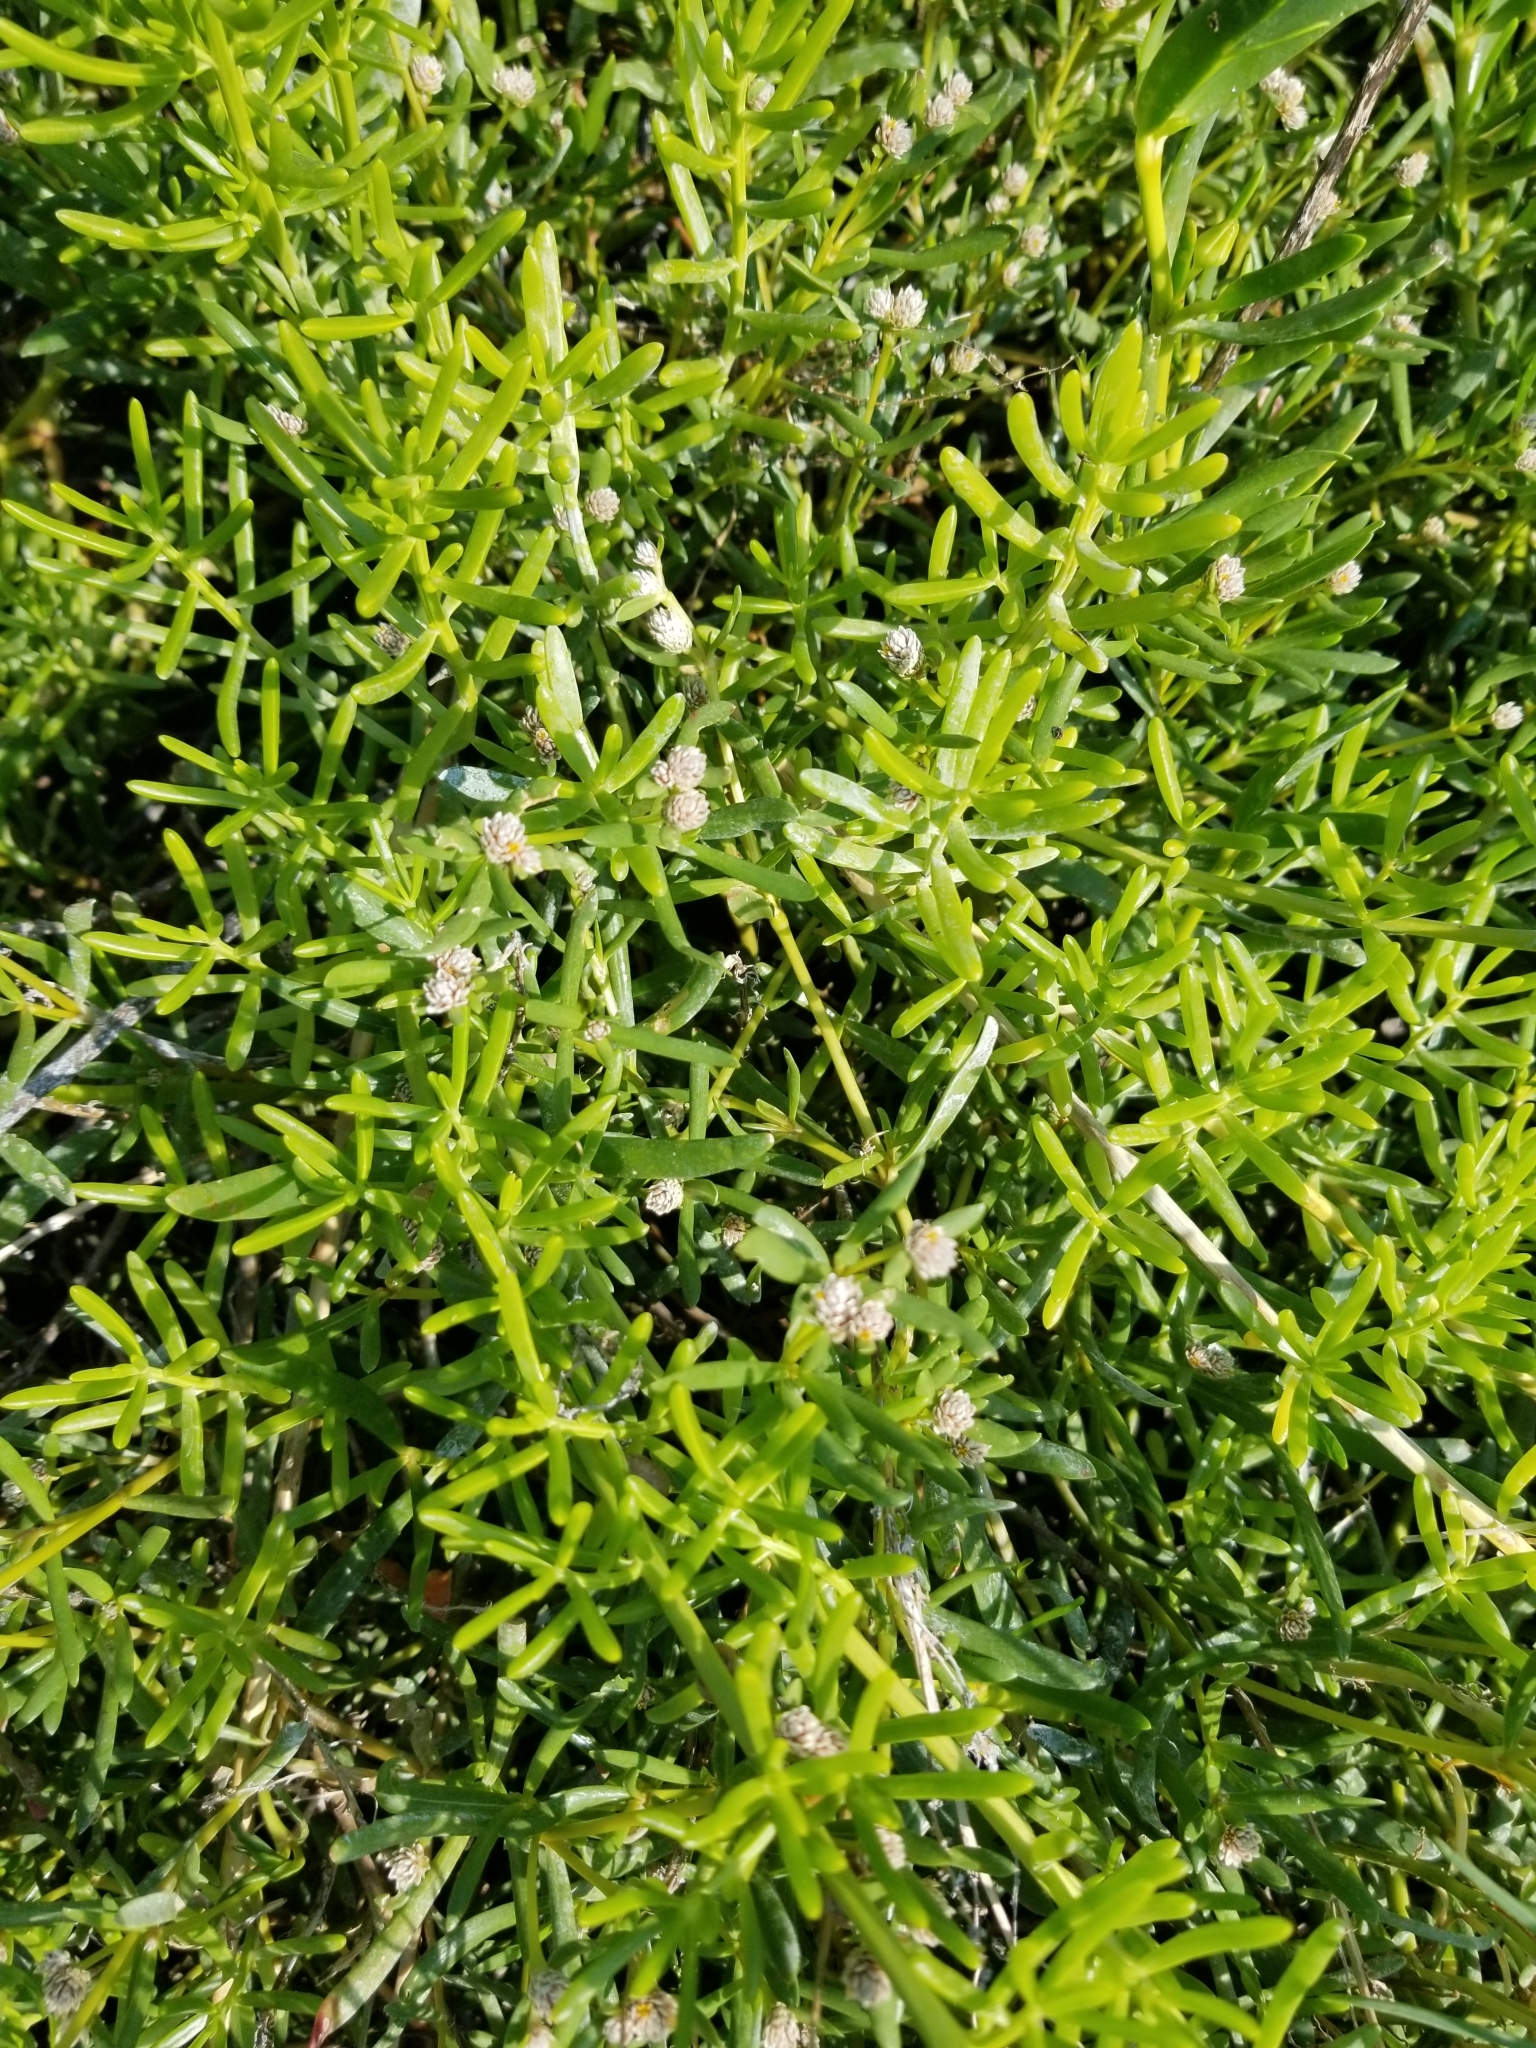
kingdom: Plantae
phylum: Tracheophyta
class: Magnoliopsida
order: Caryophyllales
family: Amaranthaceae
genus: Gomphrena
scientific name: Gomphrena vermicularis
